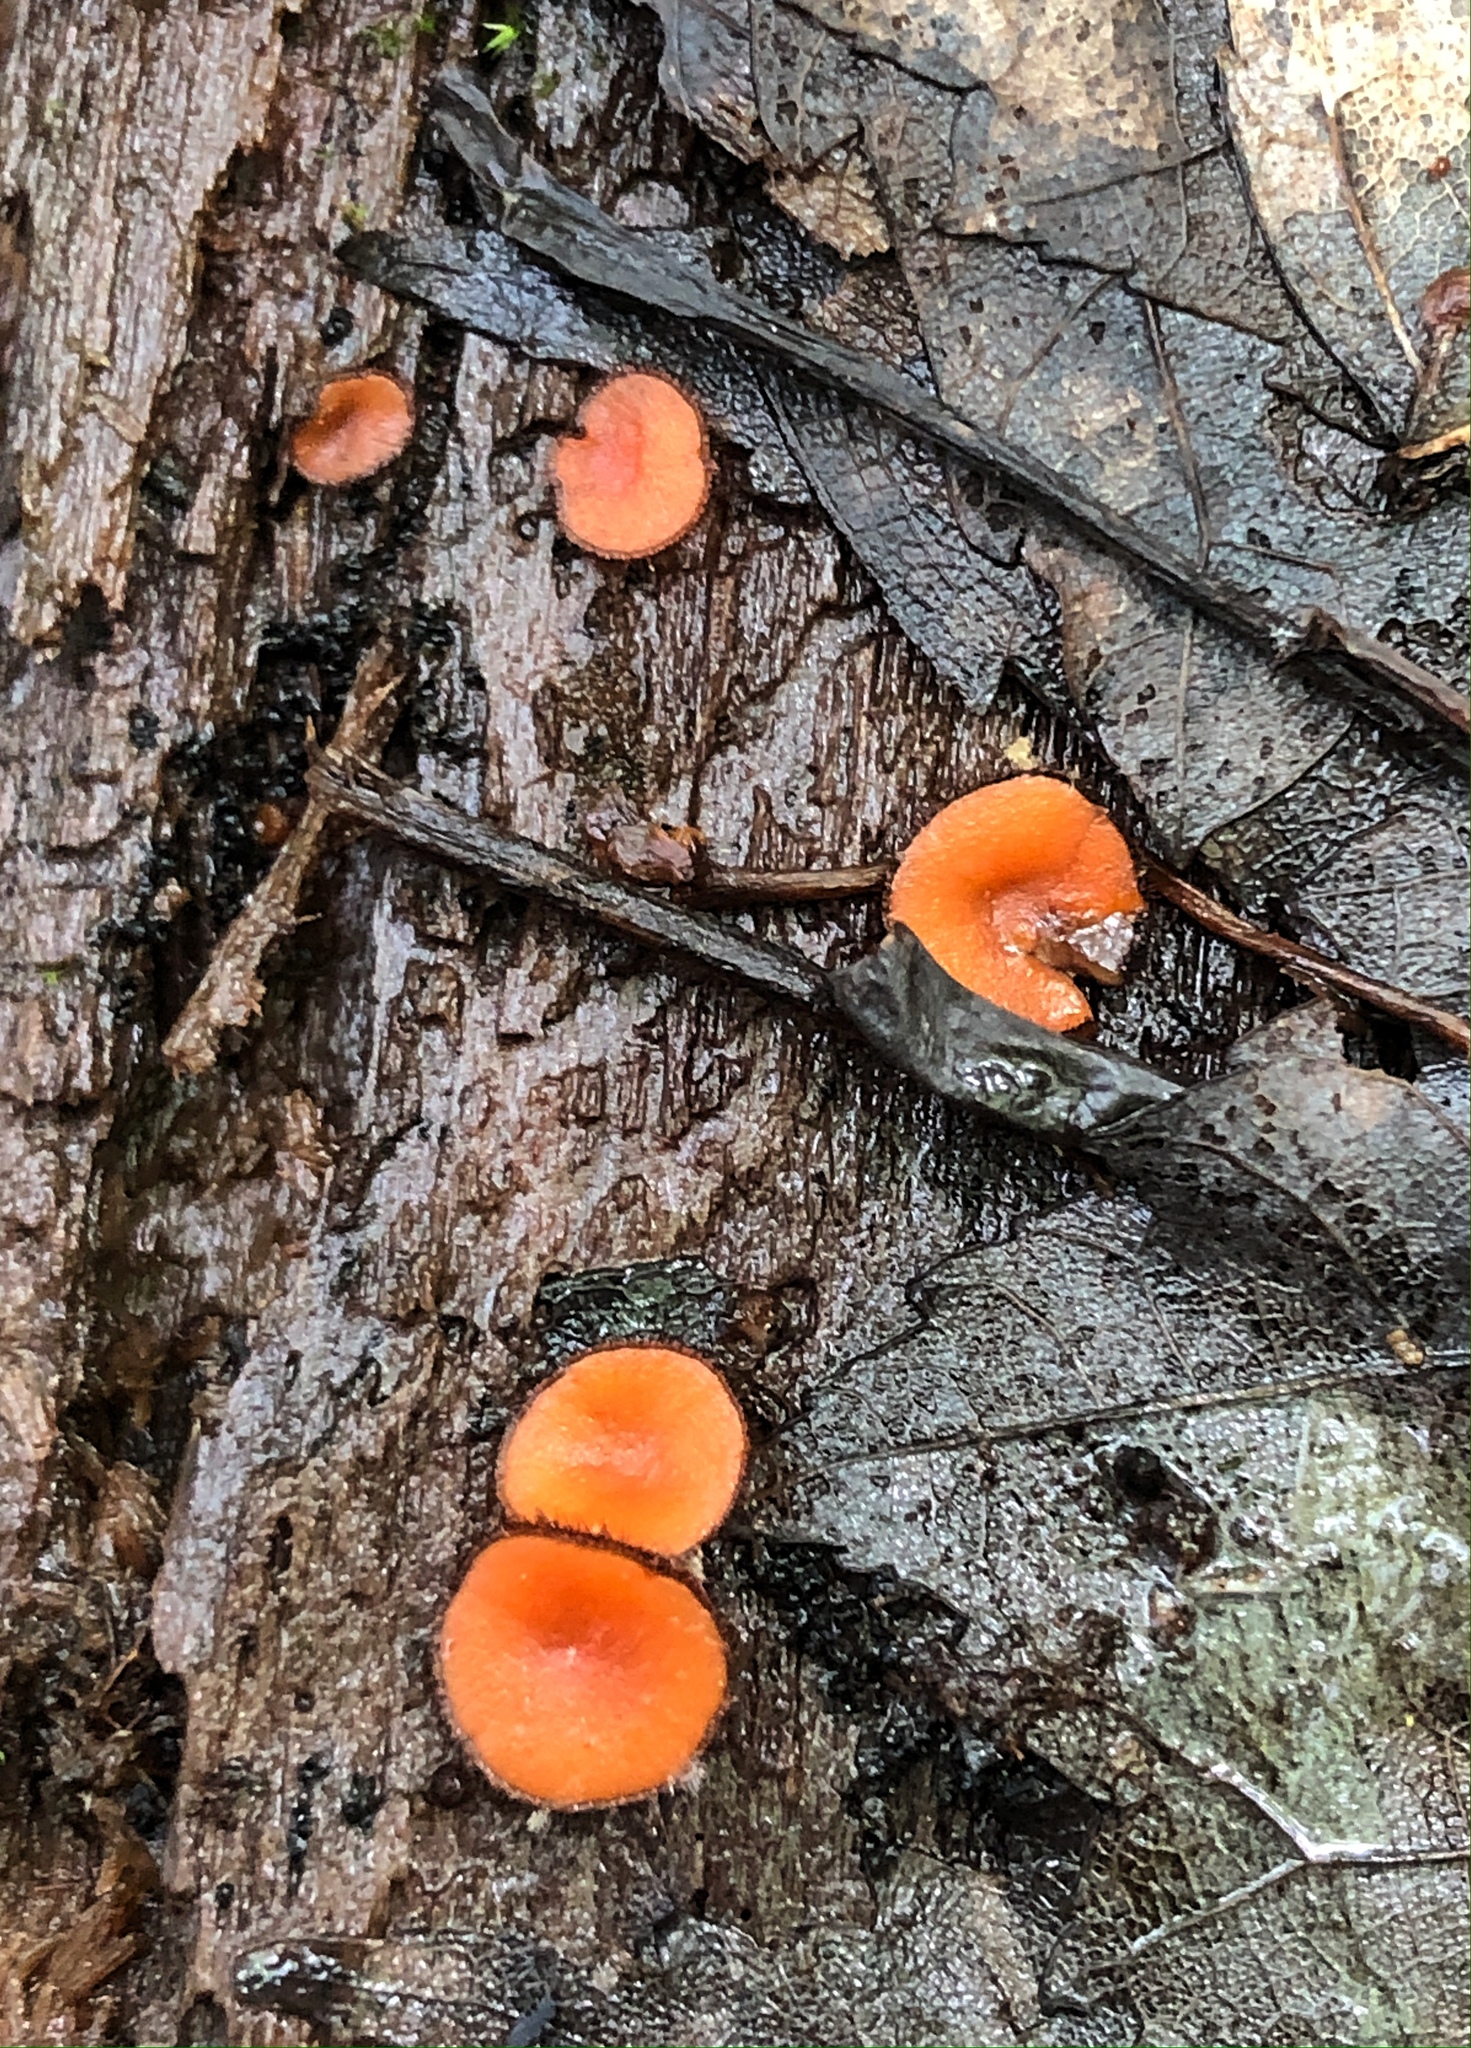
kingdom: Fungi
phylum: Ascomycota
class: Pezizomycetes
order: Pezizales
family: Pyronemataceae
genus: Scutellinia
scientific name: Scutellinia
